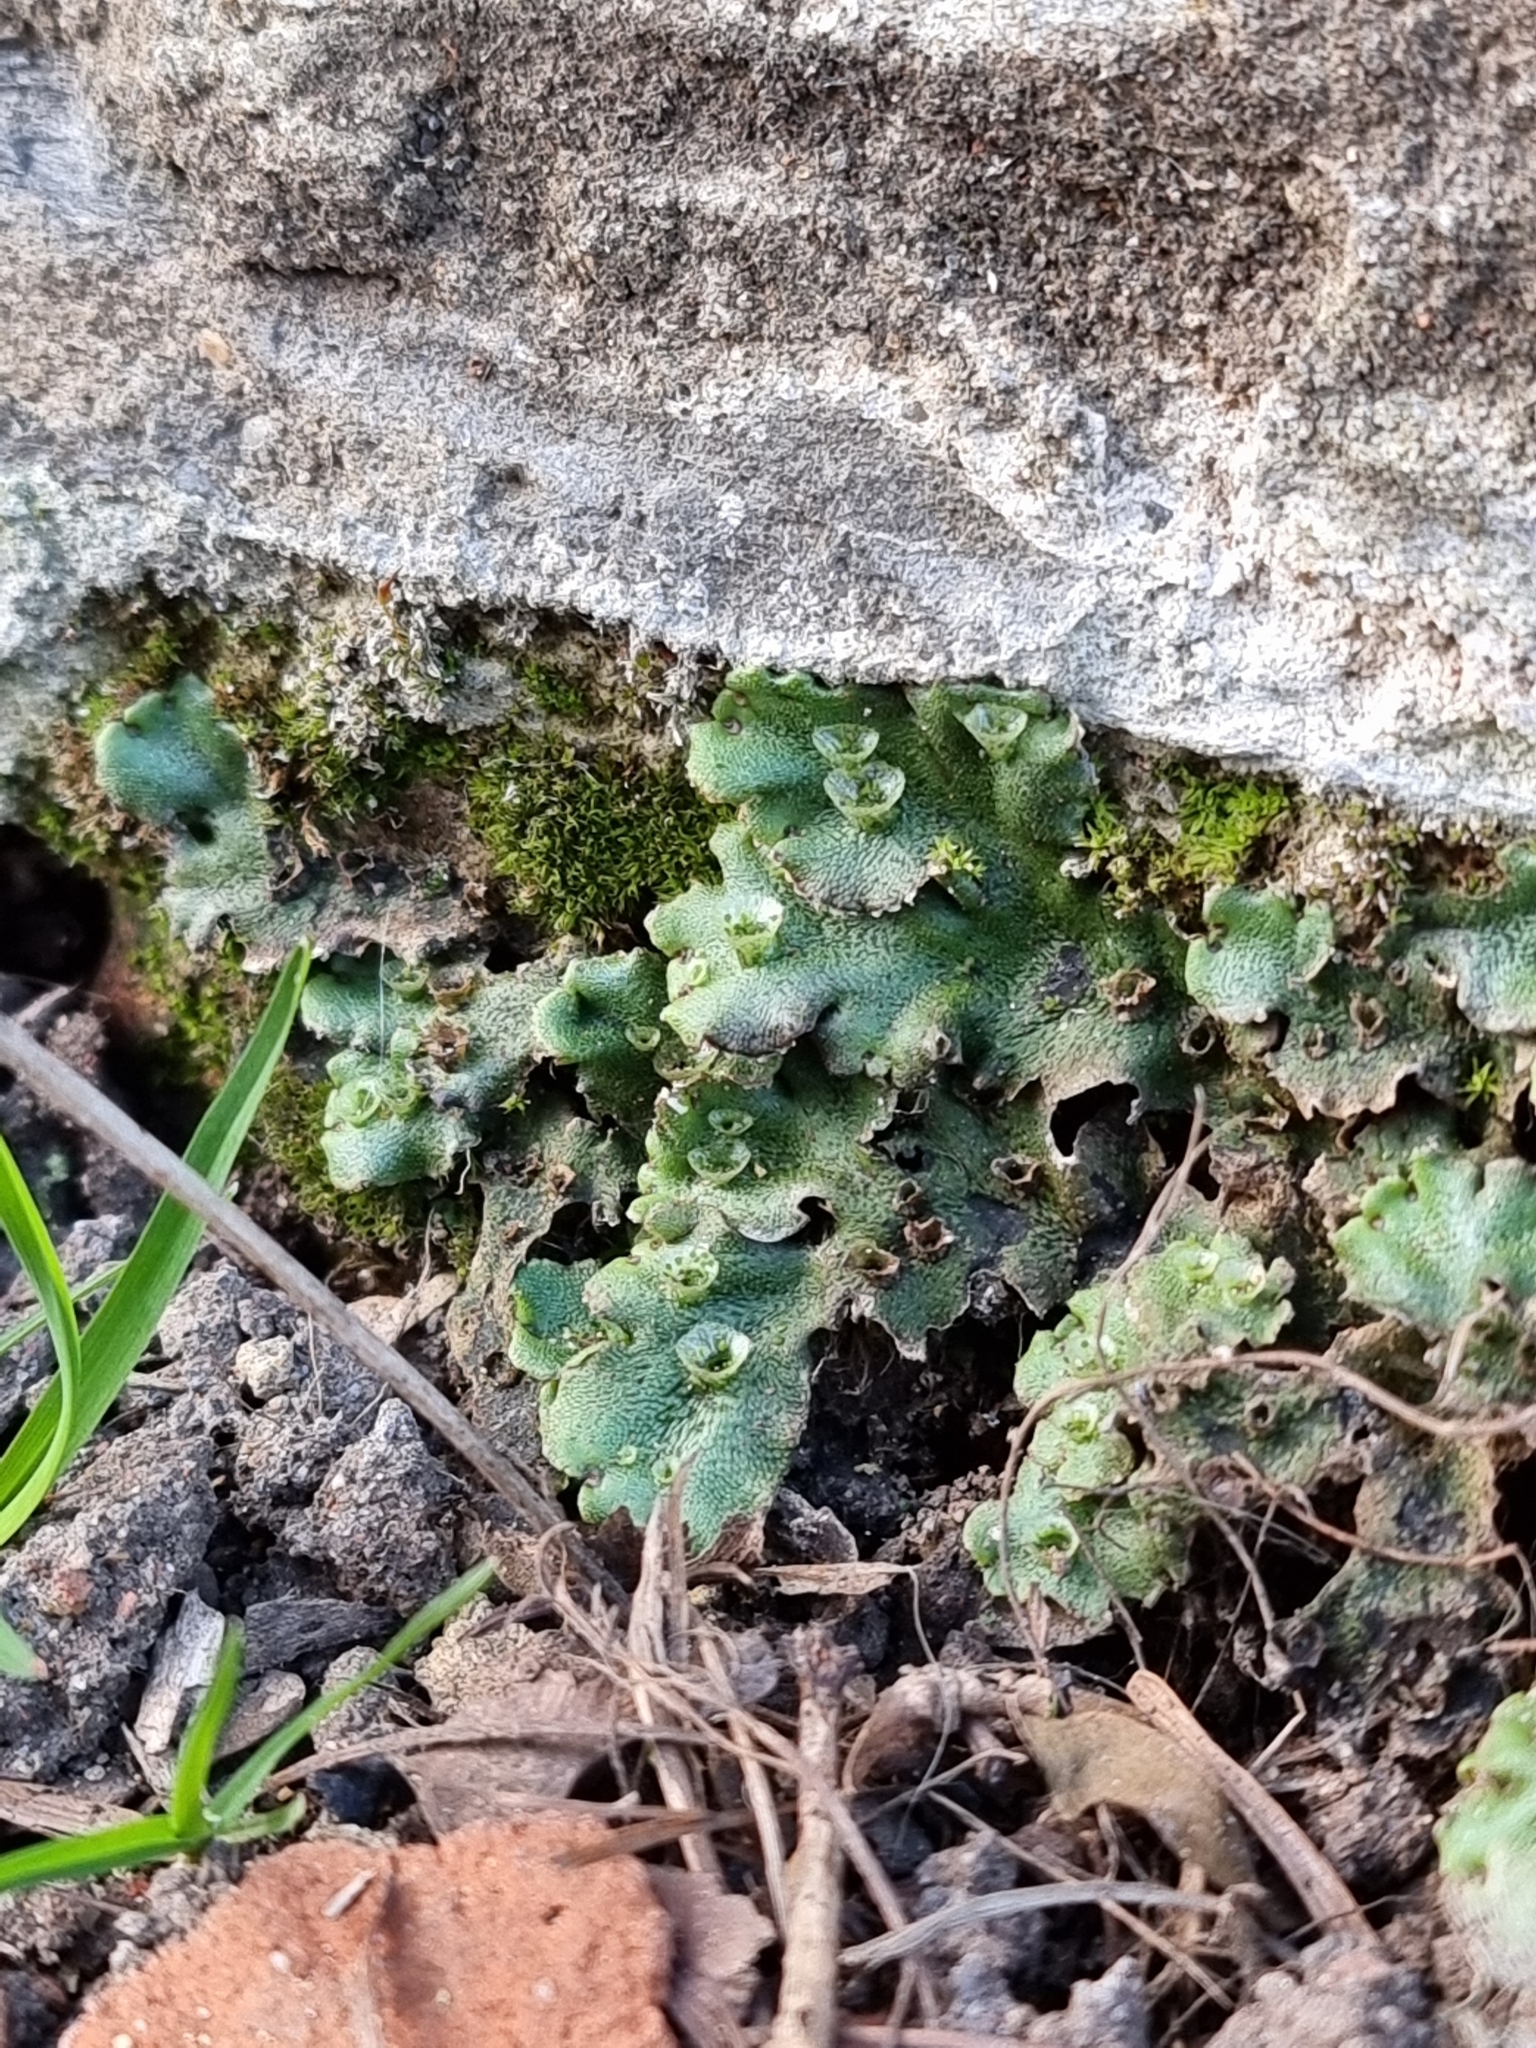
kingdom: Plantae
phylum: Marchantiophyta
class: Marchantiopsida
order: Marchantiales
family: Marchantiaceae
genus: Marchantia
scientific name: Marchantia polymorpha
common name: Common liverwort
